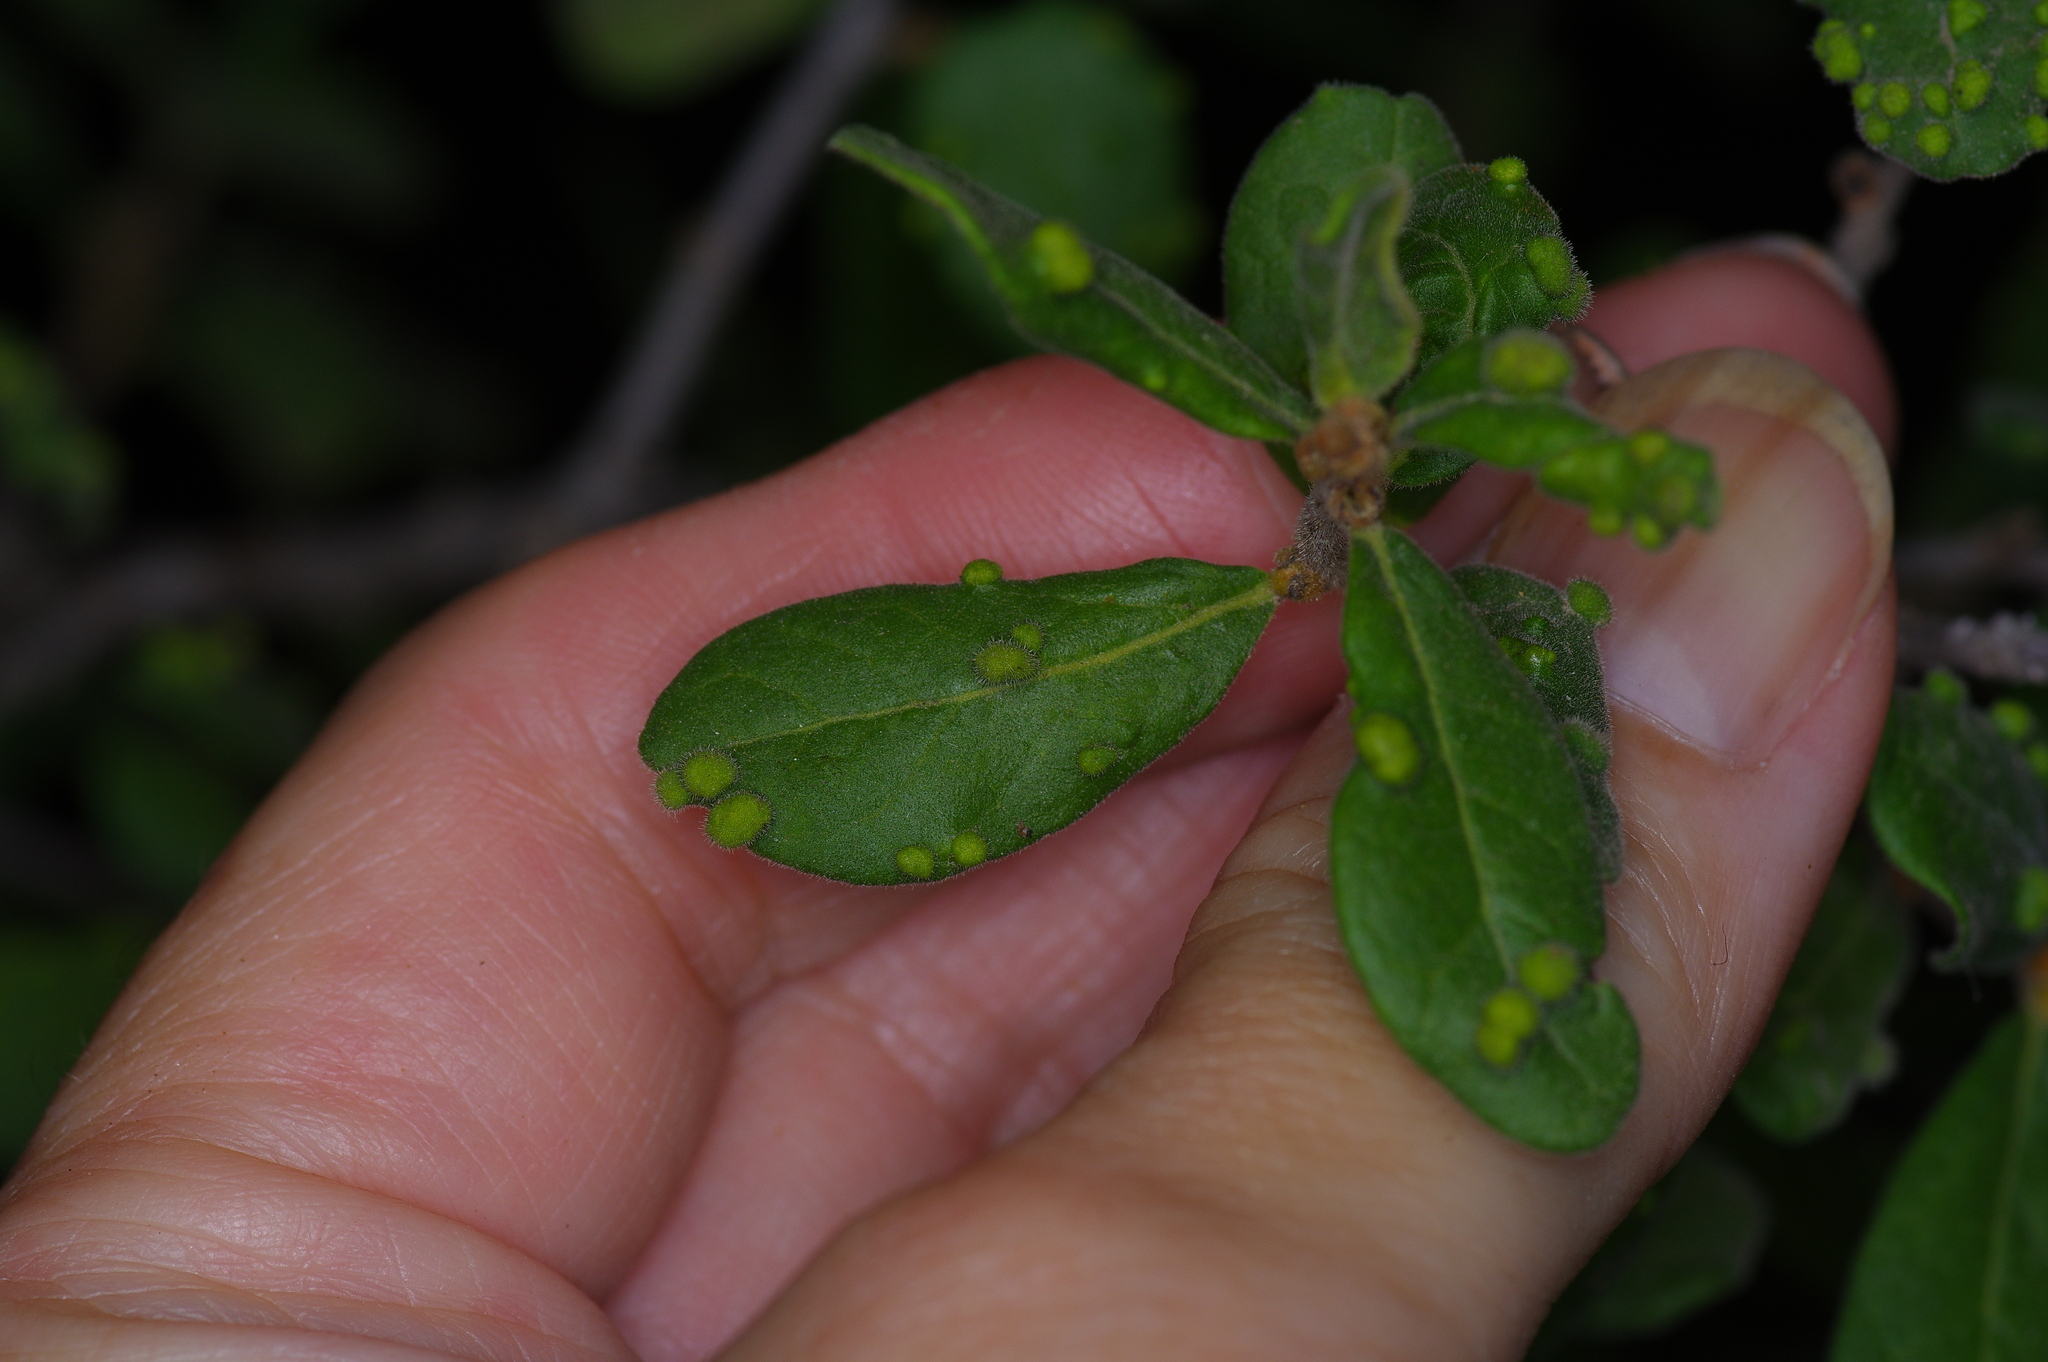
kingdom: Animalia
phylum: Arthropoda
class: Arachnida
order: Trombidiformes
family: Eriophyidae
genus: Aceria
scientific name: Aceria
